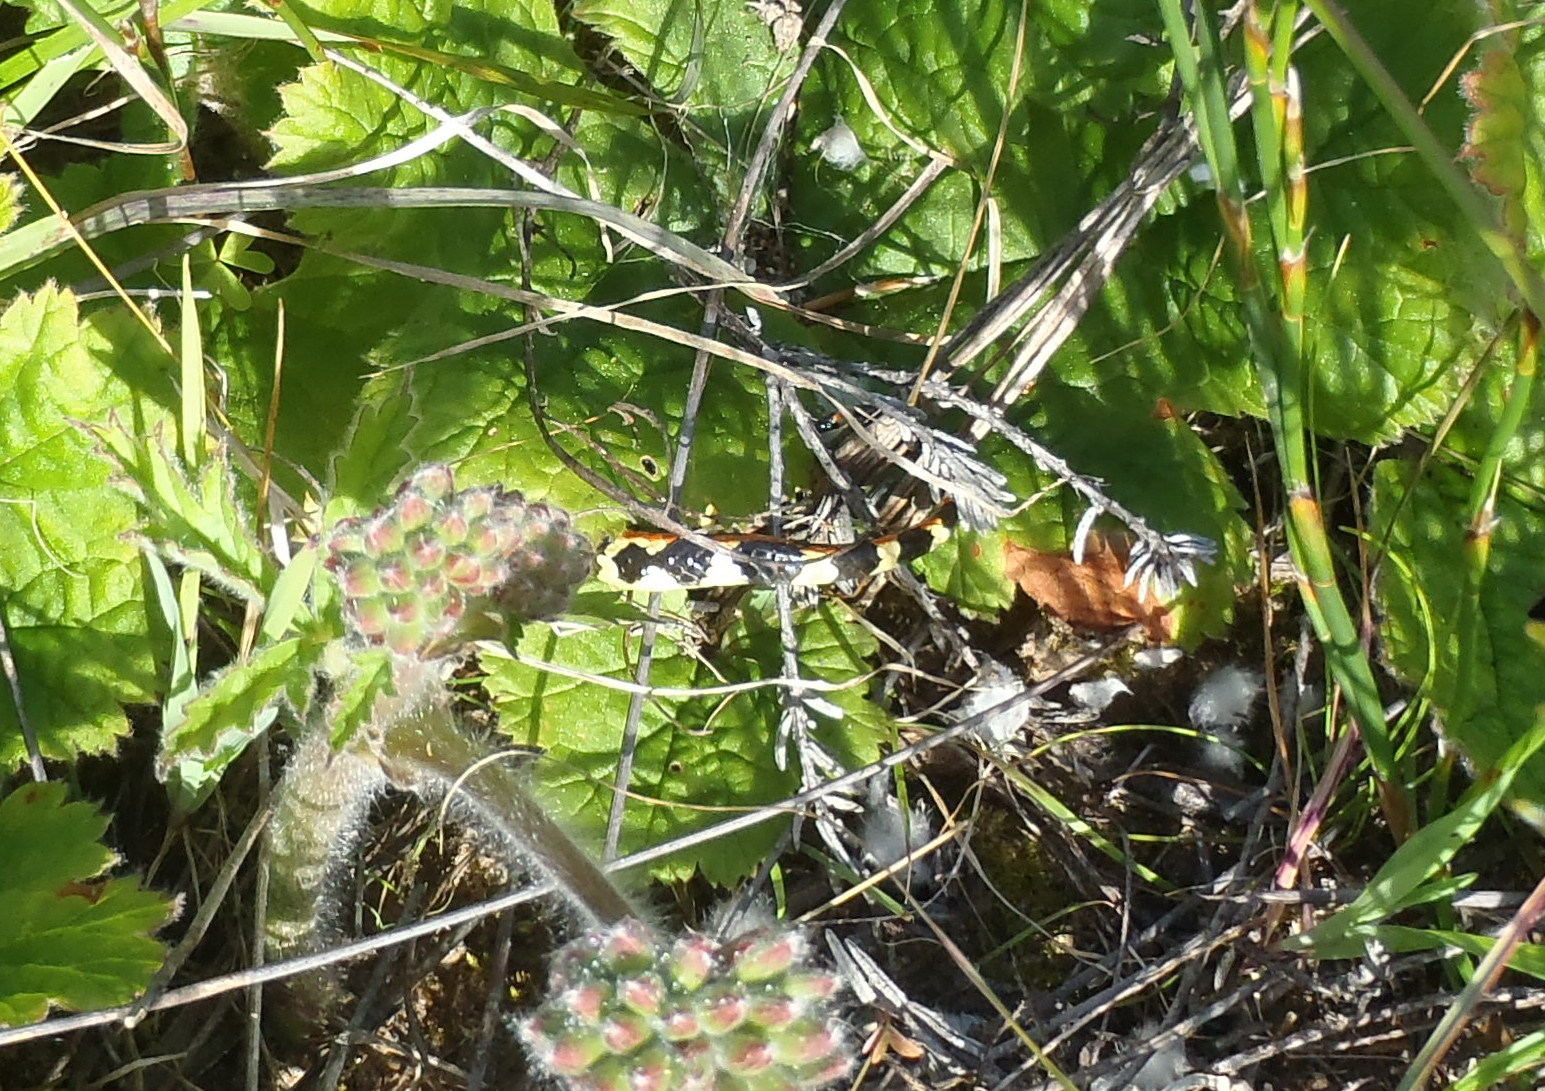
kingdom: Animalia
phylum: Chordata
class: Squamata
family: Atractaspididae
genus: Homoroselaps
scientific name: Homoroselaps lacteus
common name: Spotted harlequin snake
